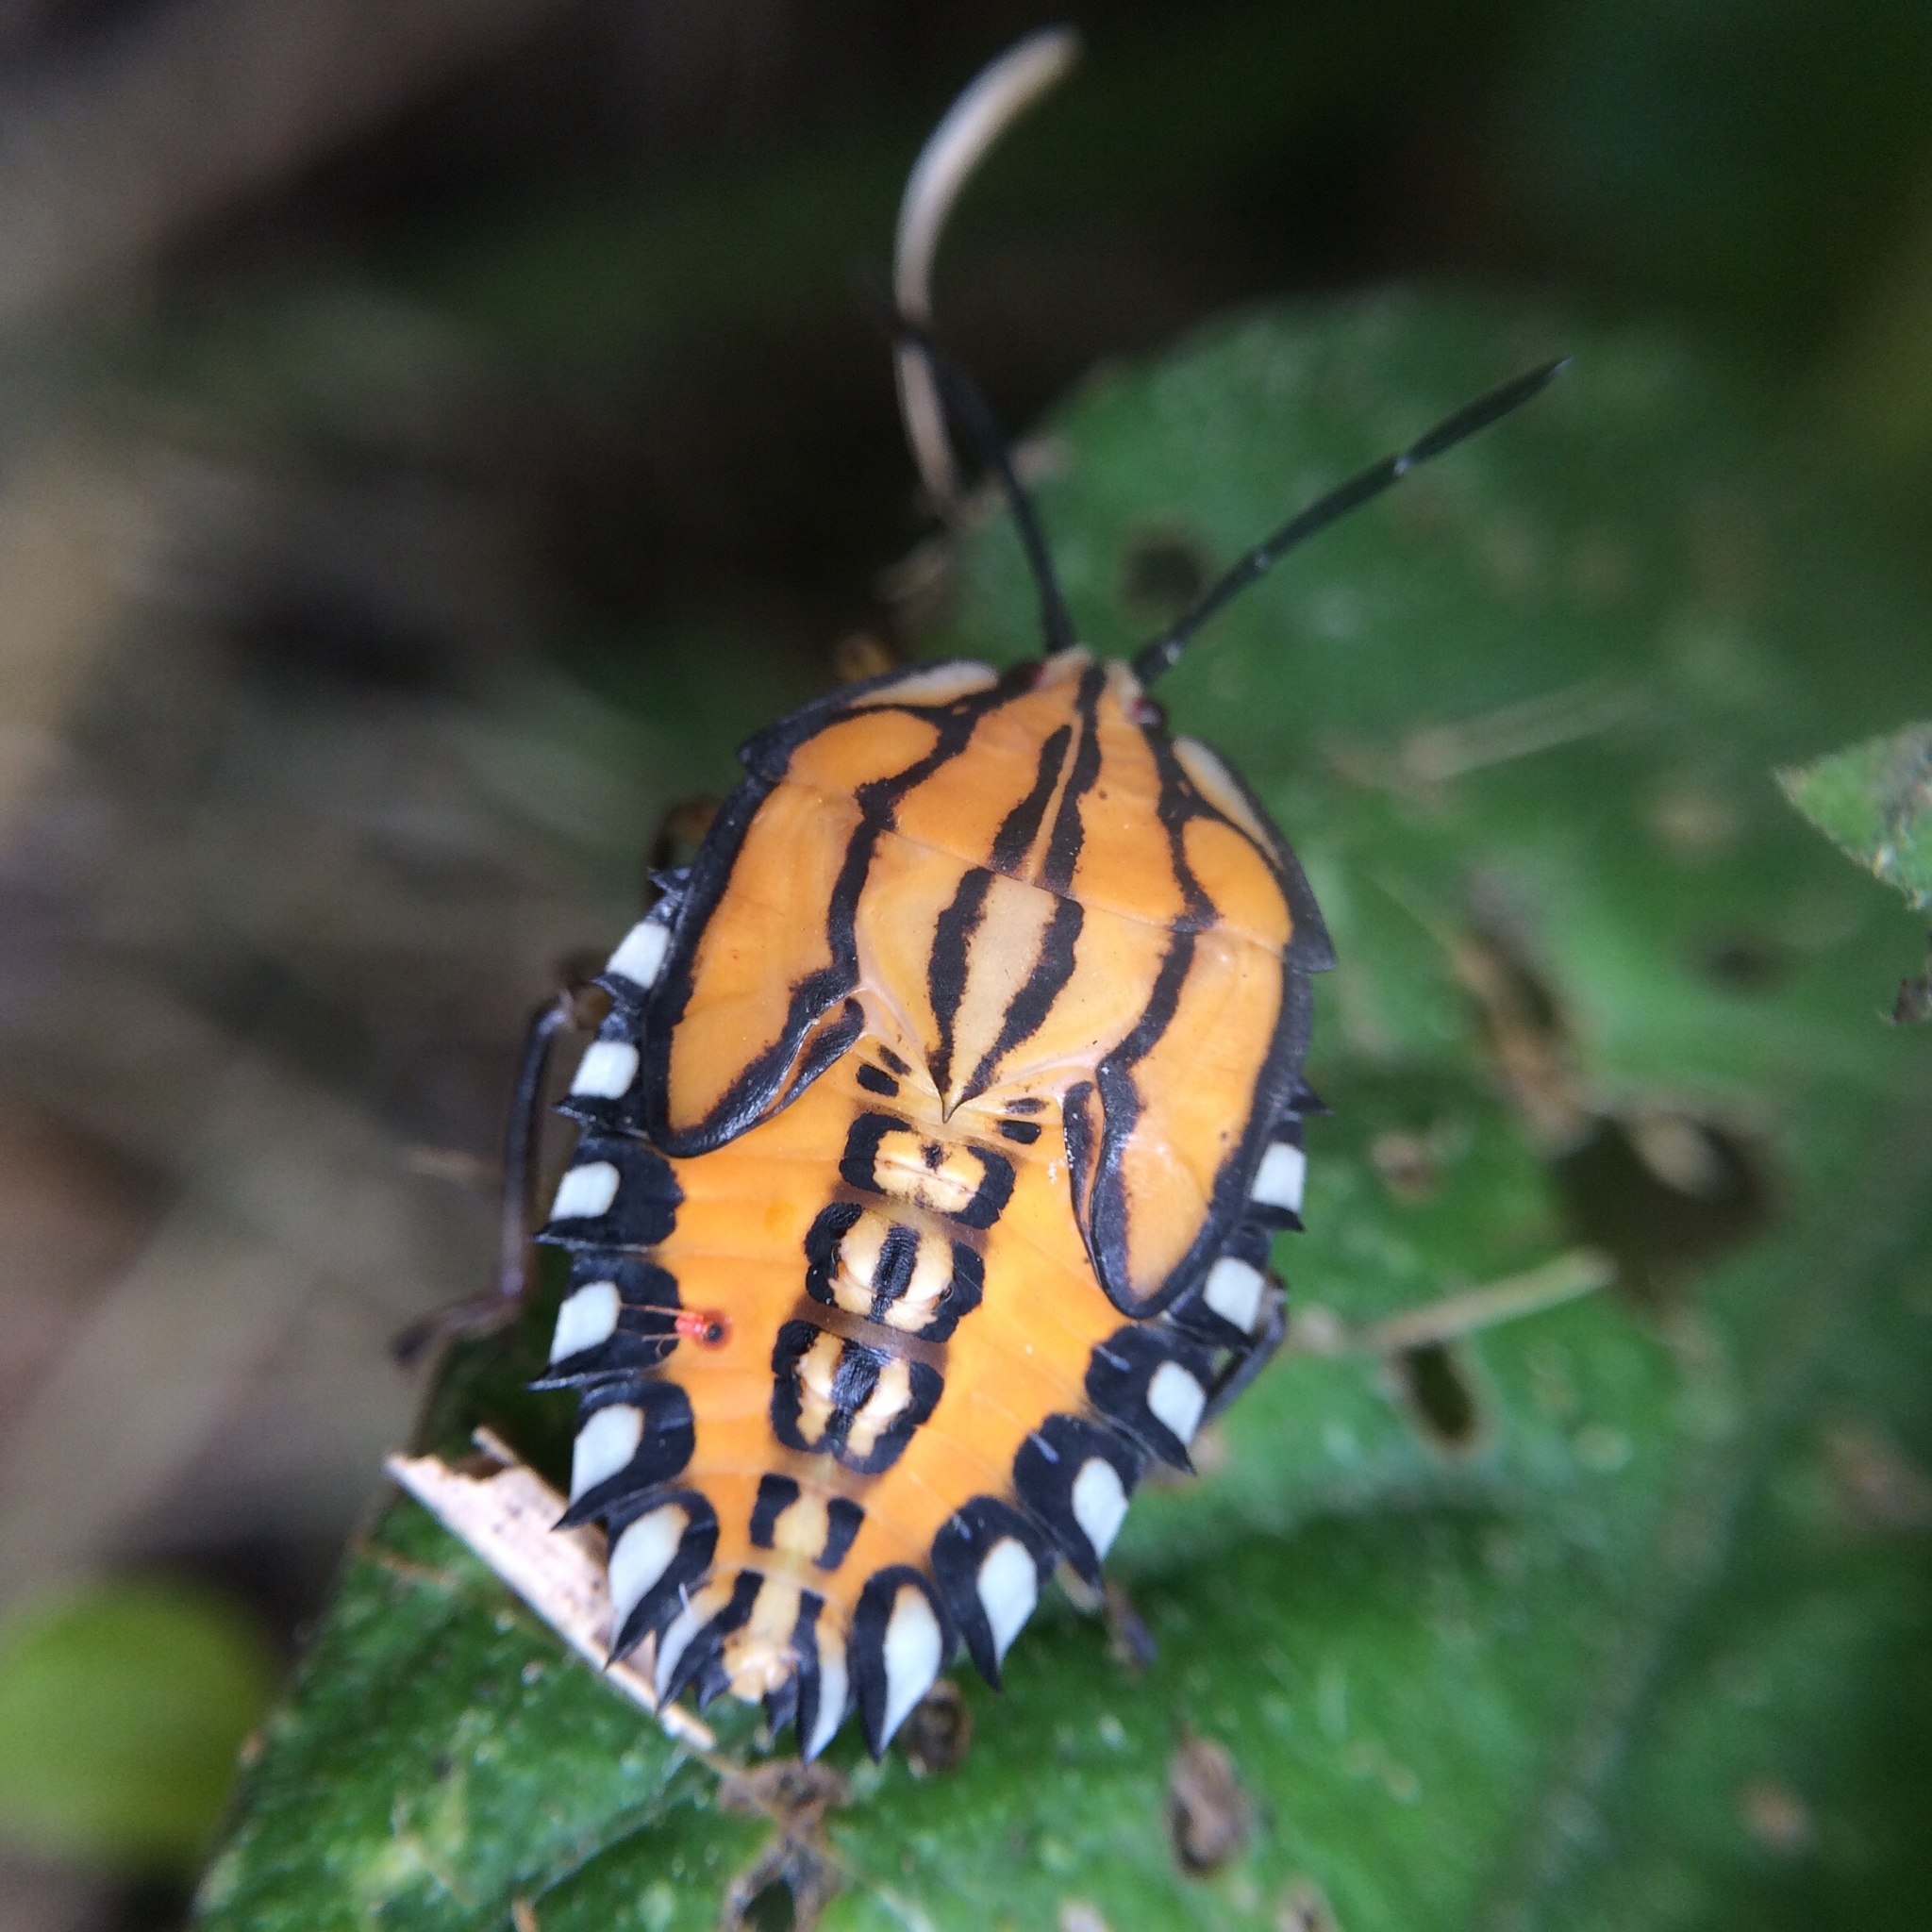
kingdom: Animalia
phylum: Arthropoda
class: Insecta
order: Hemiptera
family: Tessaratomidae
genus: Piezosternum
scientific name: Piezosternum calidum
